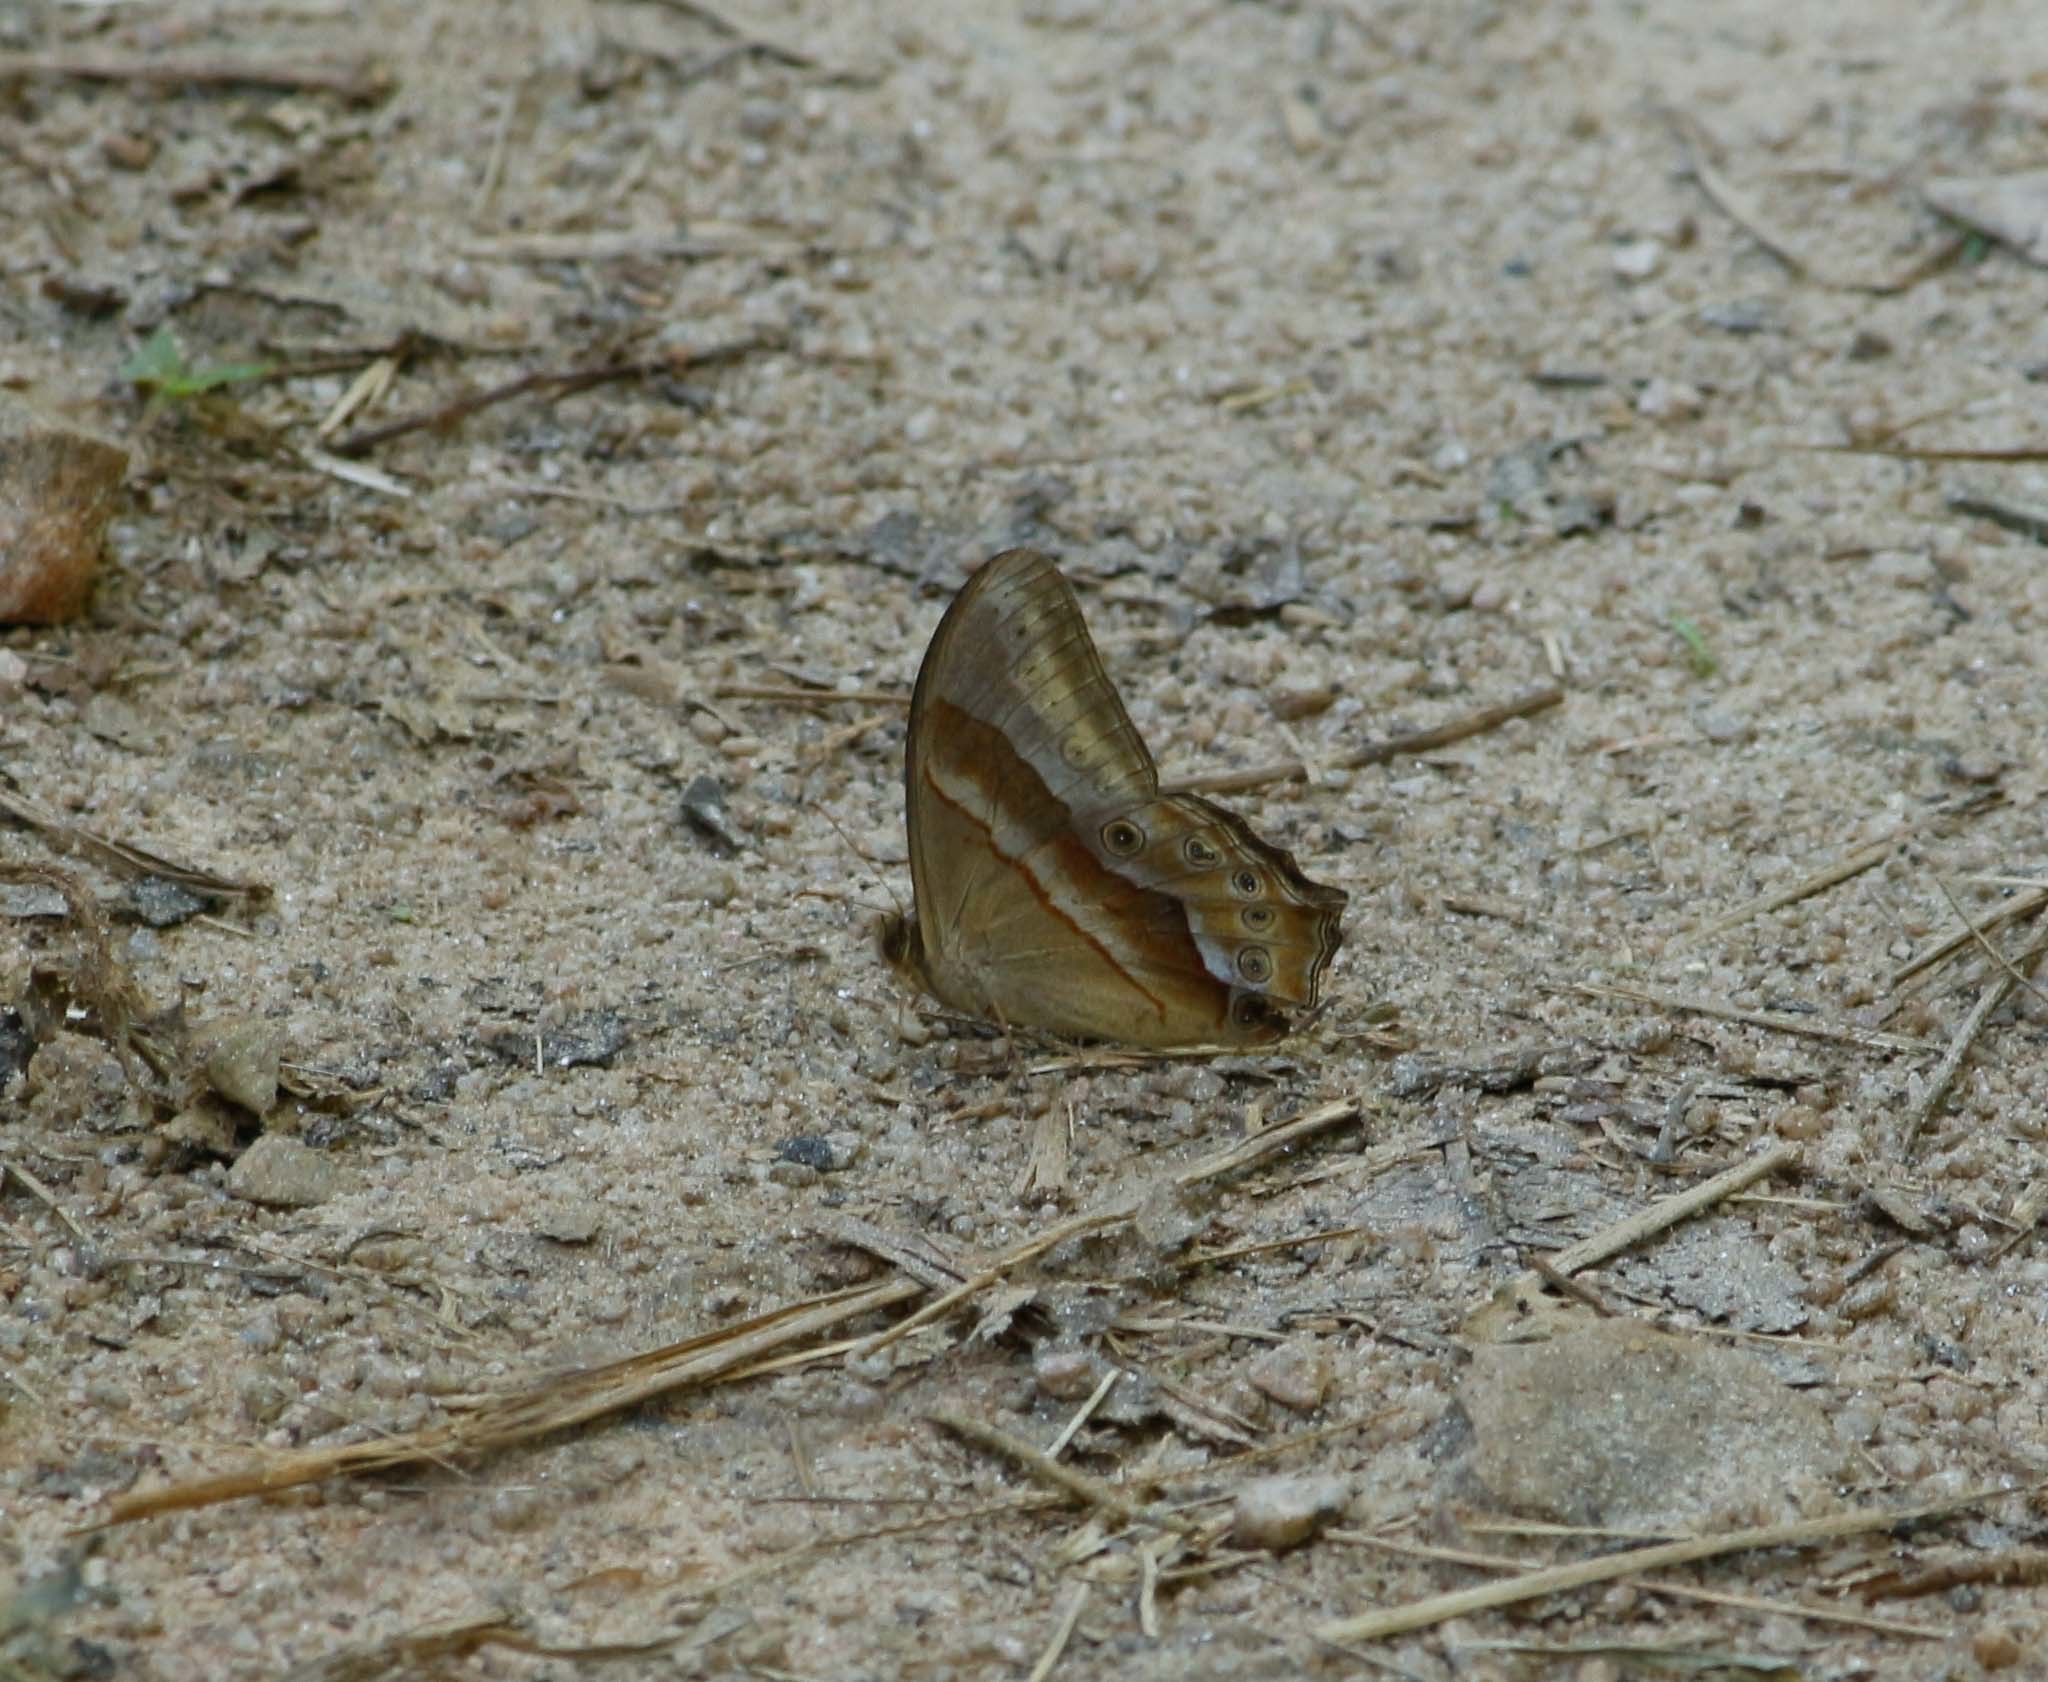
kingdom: Animalia
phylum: Arthropoda
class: Insecta
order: Lepidoptera
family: Nymphalidae
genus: Lethe
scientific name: Lethe chandica
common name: Angled red forester
